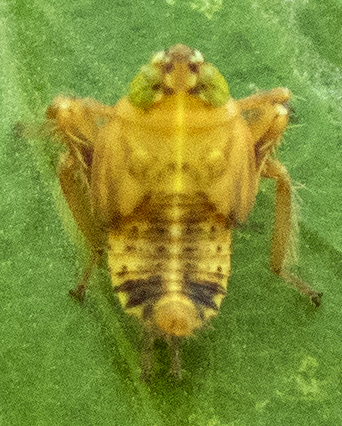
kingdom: Animalia
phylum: Arthropoda
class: Insecta
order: Hemiptera
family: Cicadellidae
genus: Jikradia
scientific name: Jikradia olitoria
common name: Coppery leafhopper
